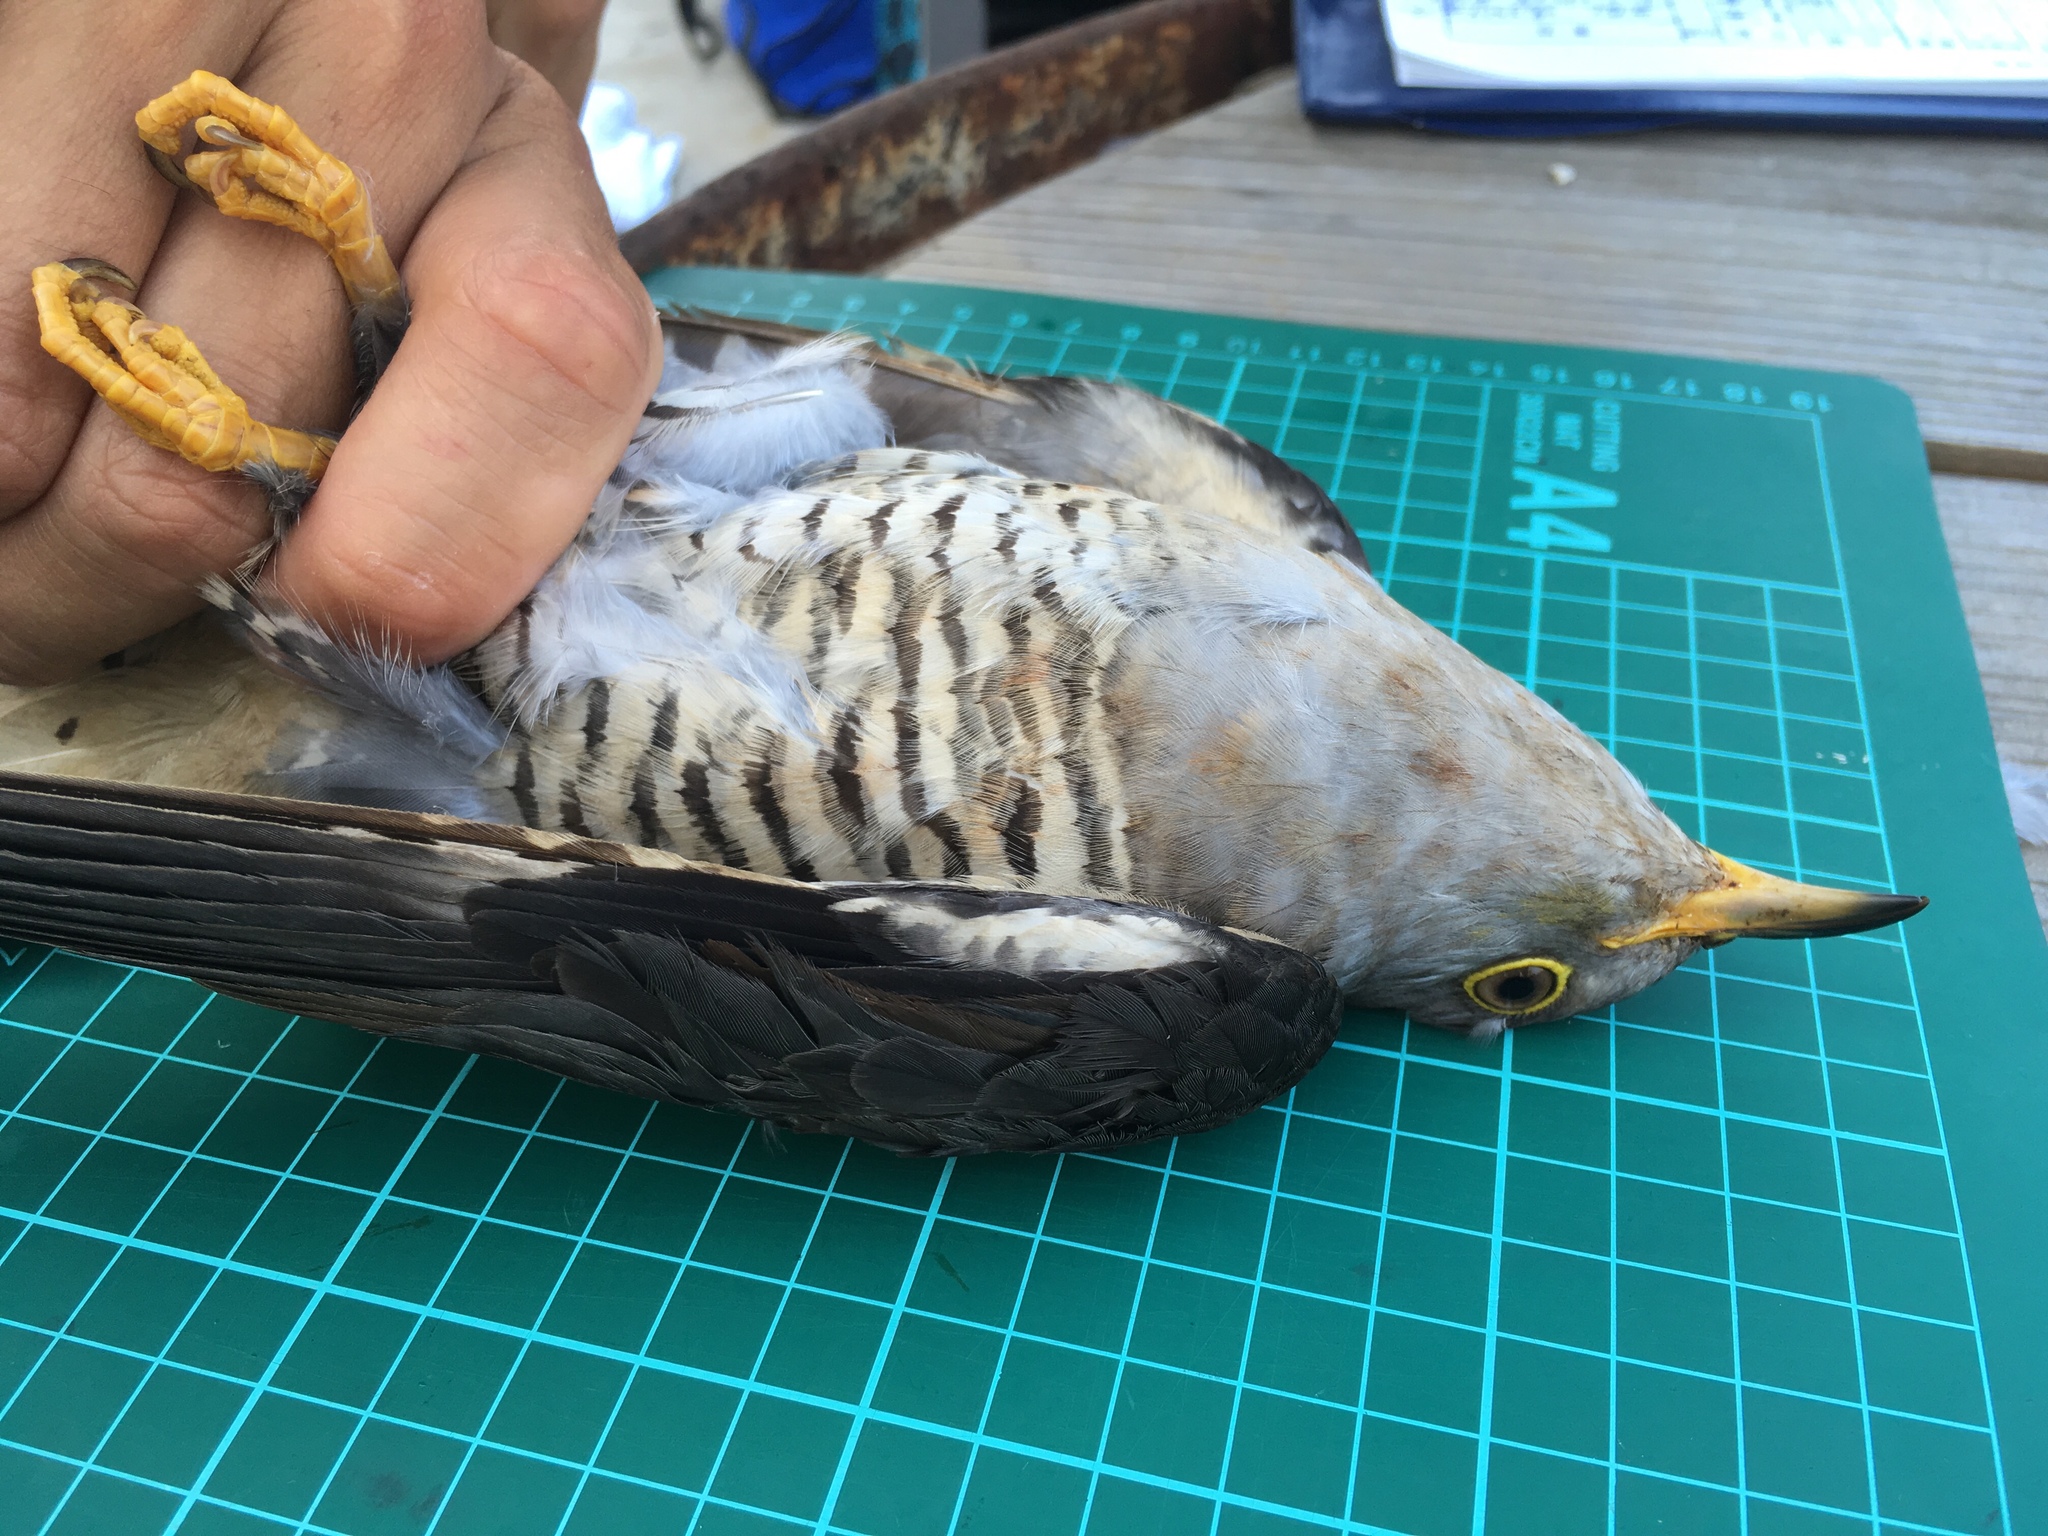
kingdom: Animalia
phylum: Chordata
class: Aves
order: Cuculiformes
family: Cuculidae
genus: Cuculus
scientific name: Cuculus optatus
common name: Oriental cuckoo
